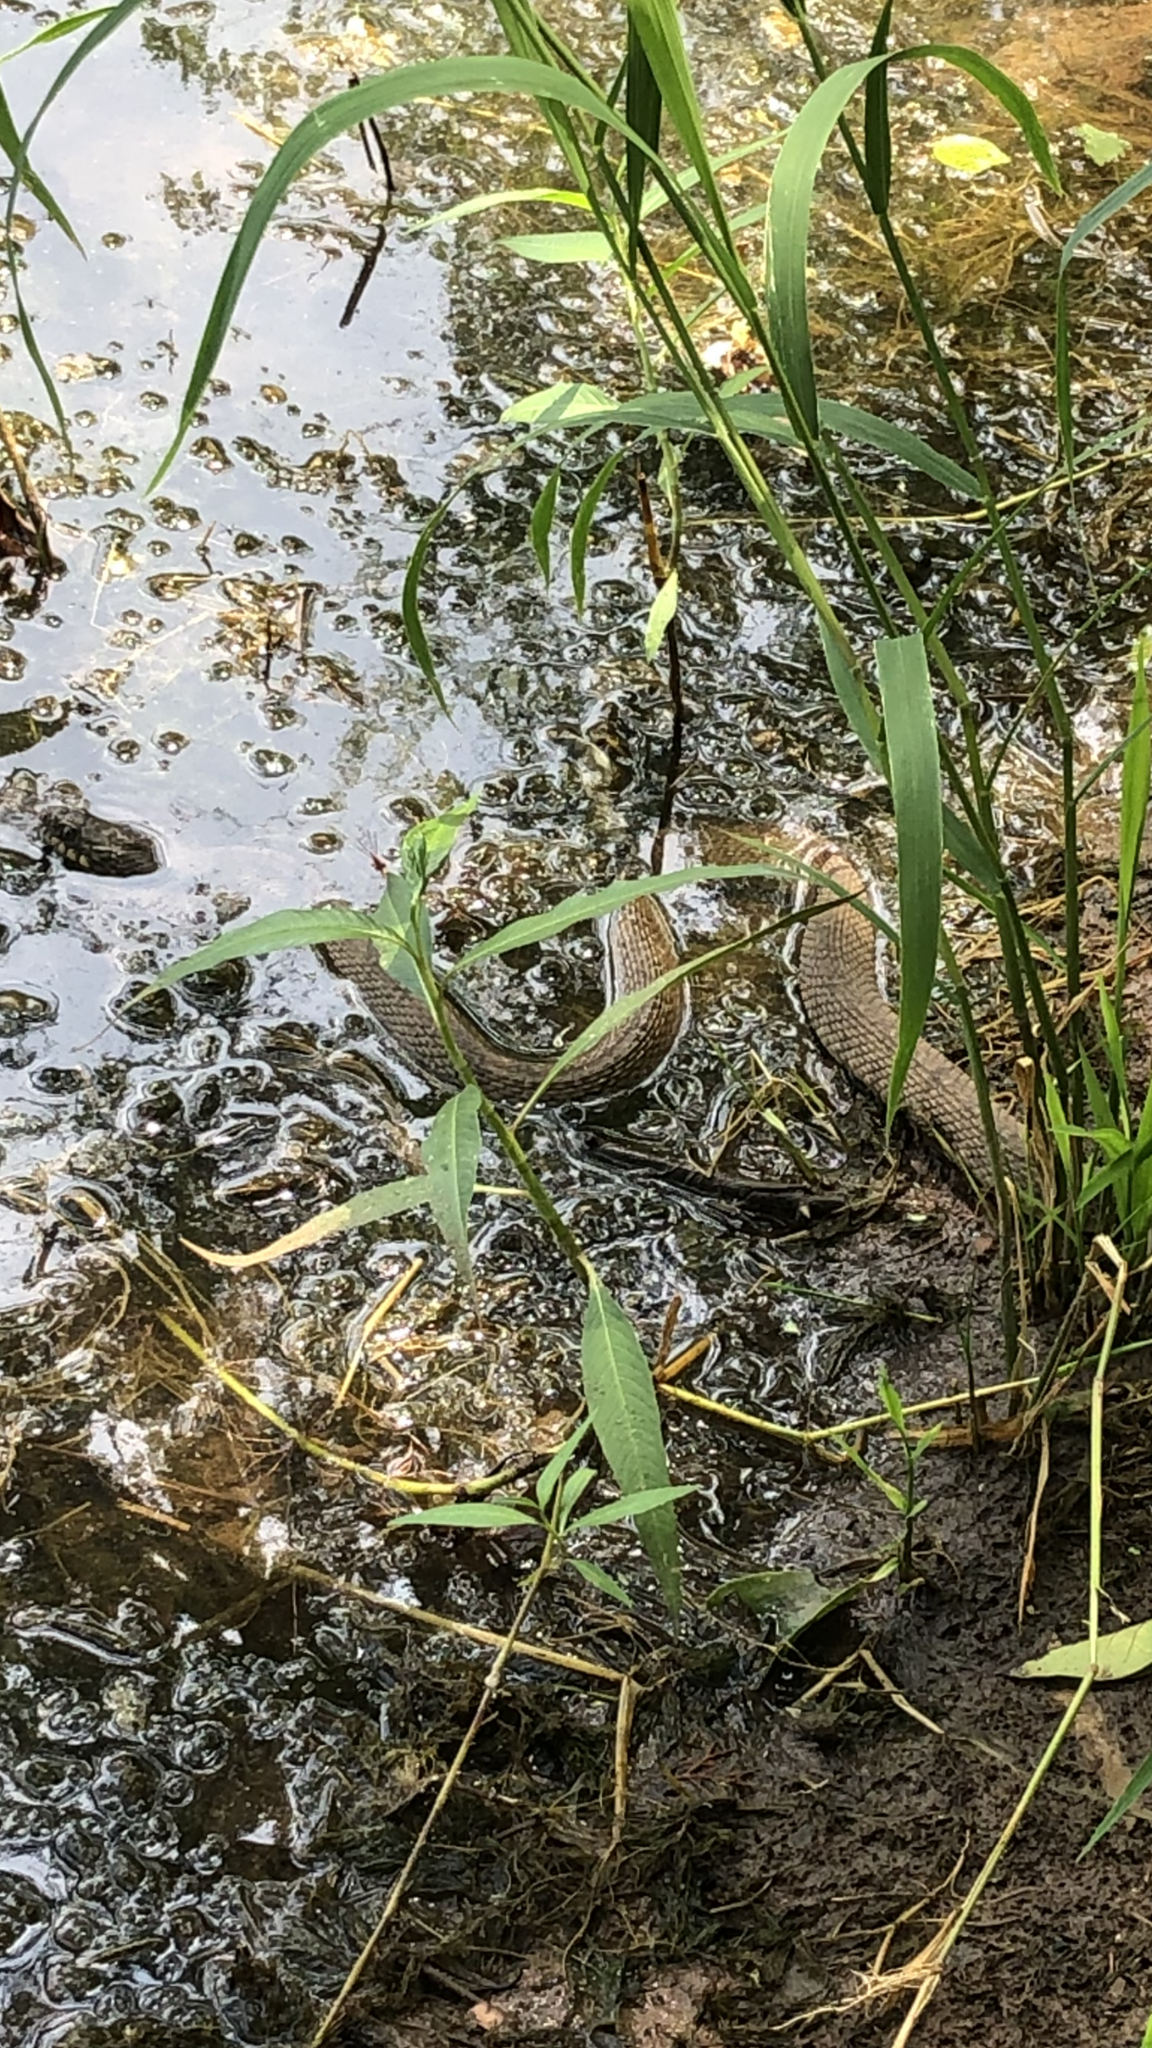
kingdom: Animalia
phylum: Chordata
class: Squamata
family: Colubridae
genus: Nerodia
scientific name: Nerodia erythrogaster
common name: Plainbelly water snake
